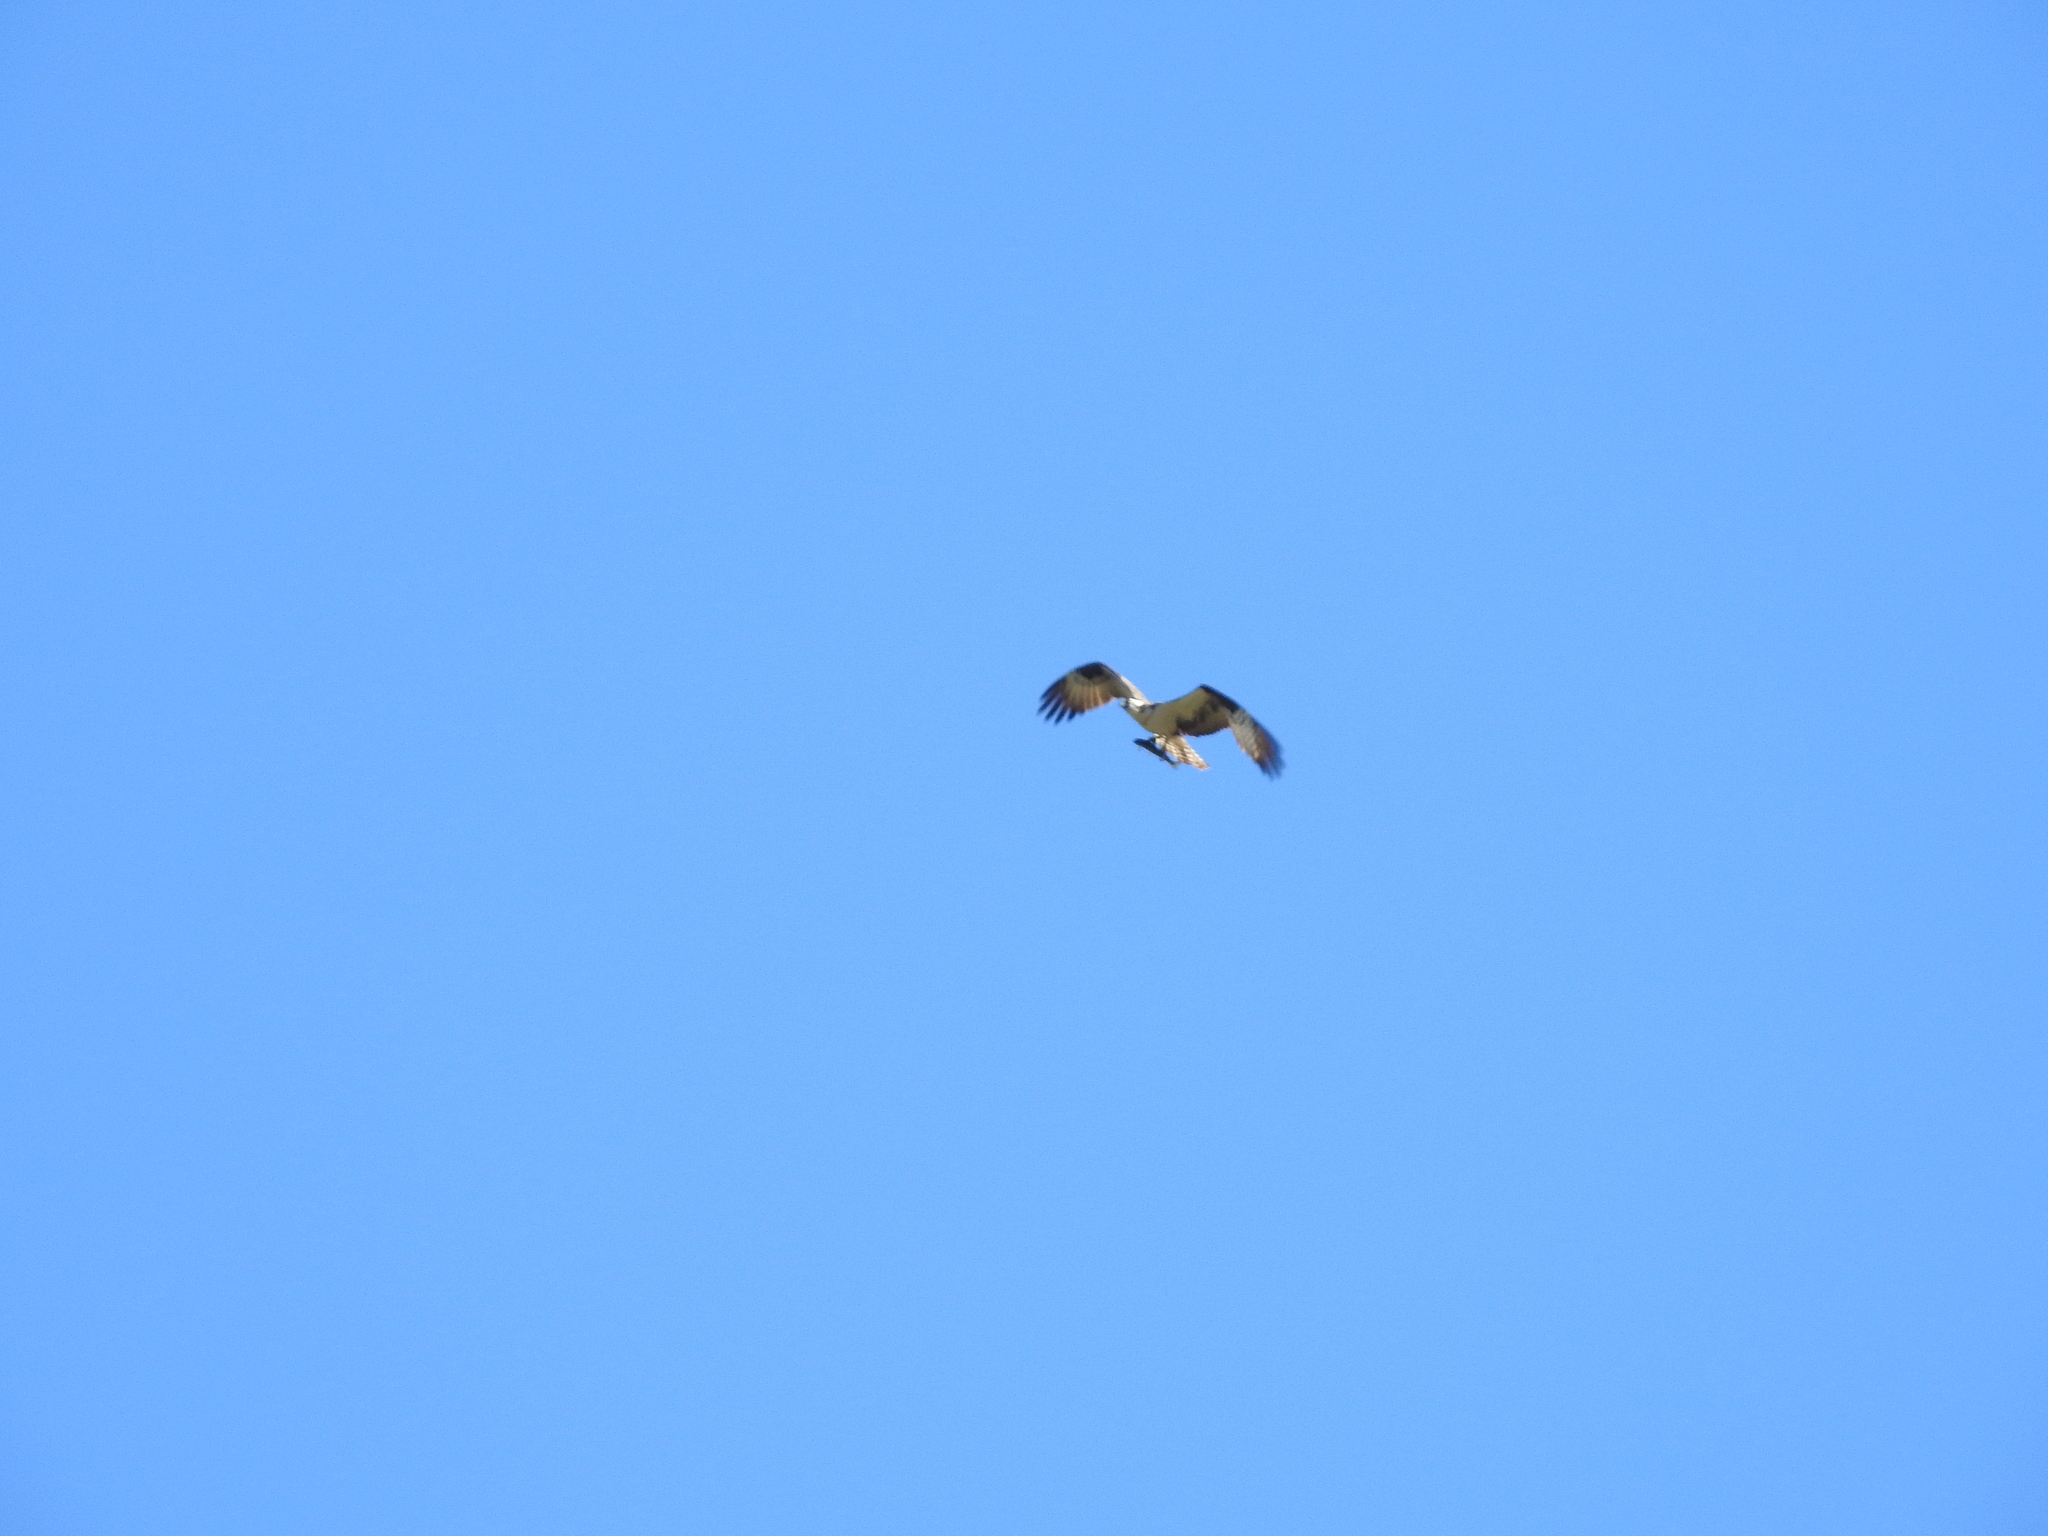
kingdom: Animalia
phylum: Chordata
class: Aves
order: Accipitriformes
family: Pandionidae
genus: Pandion
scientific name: Pandion haliaetus
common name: Osprey
